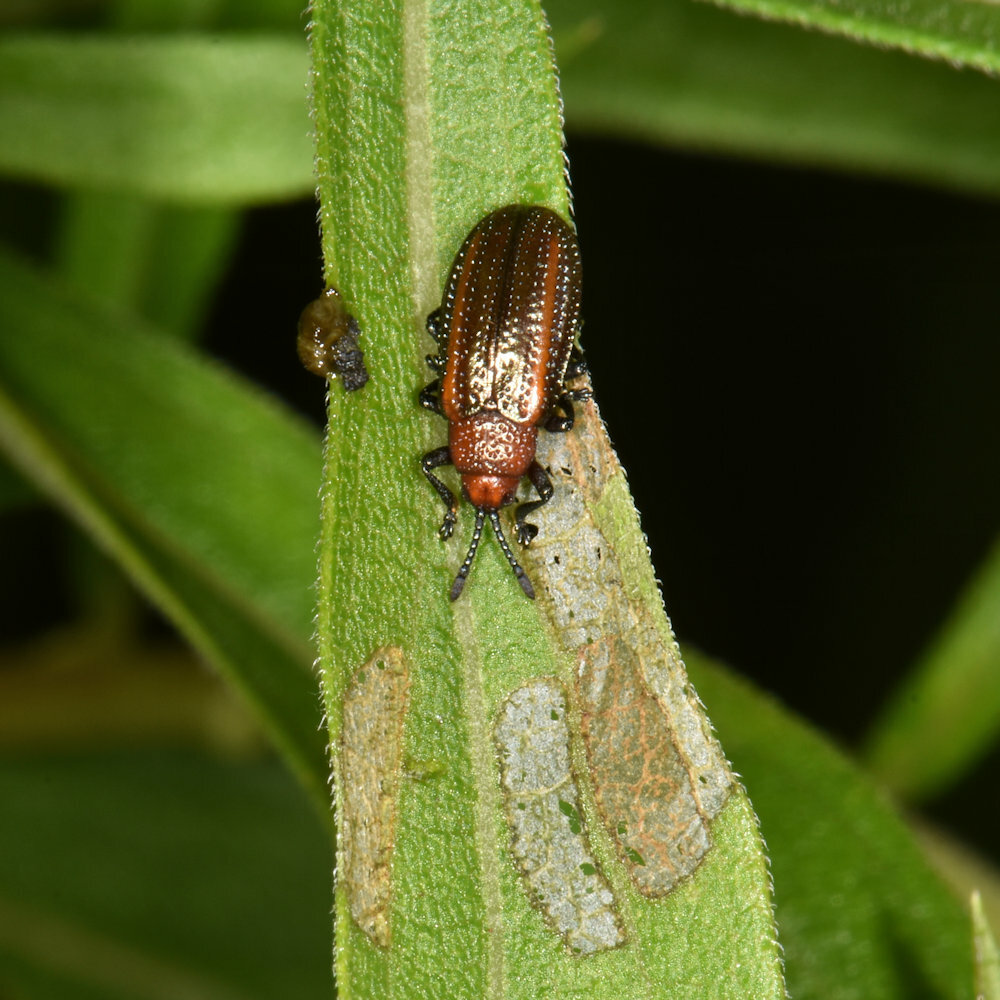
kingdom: Animalia
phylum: Arthropoda
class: Insecta
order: Coleoptera
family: Chrysomelidae
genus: Microrhopala
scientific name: Microrhopala vittata
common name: Goldenrod leaf miner beetle
